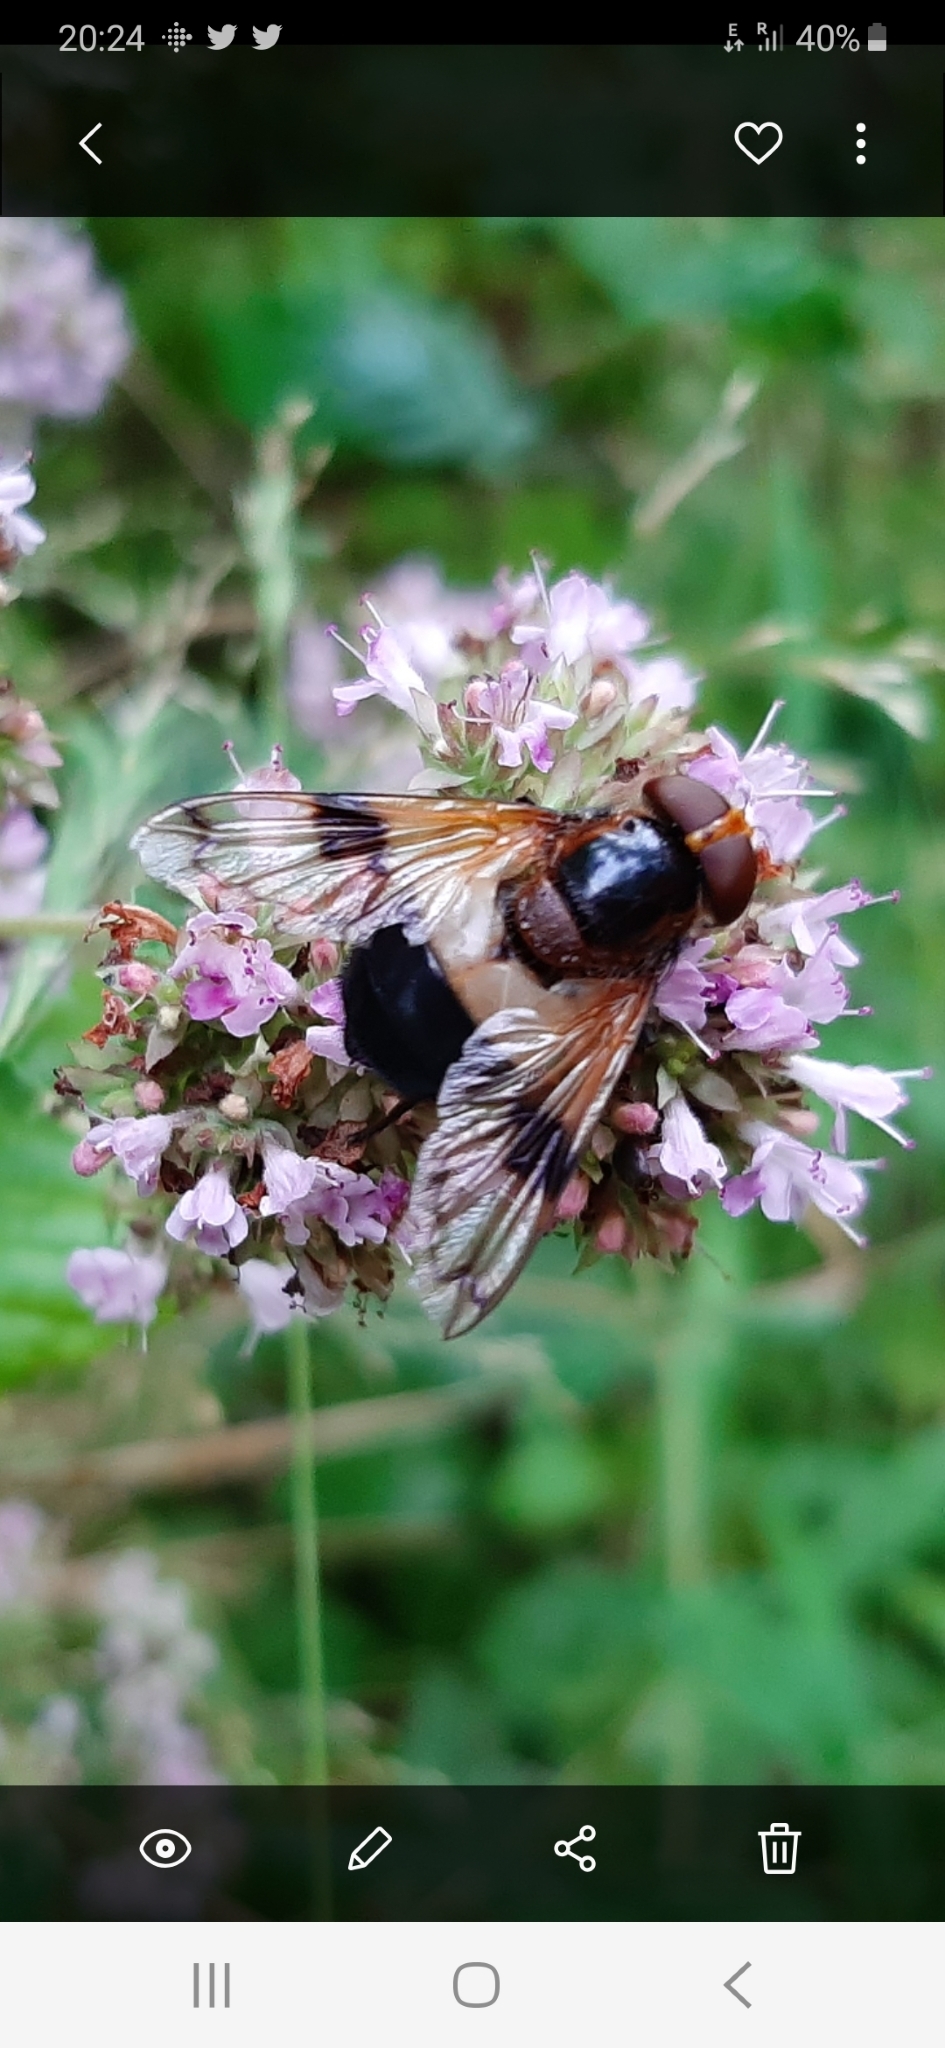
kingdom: Animalia
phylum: Arthropoda
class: Insecta
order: Diptera
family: Syrphidae
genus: Volucella
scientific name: Volucella pellucens
